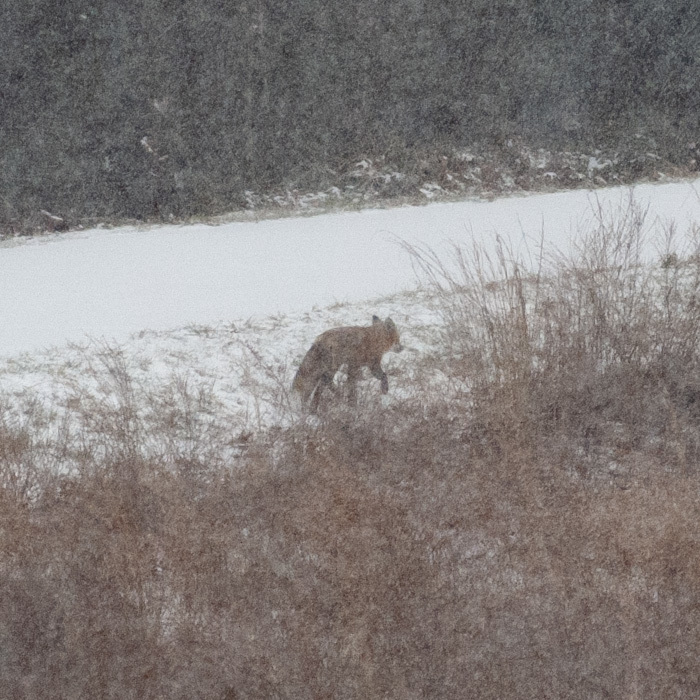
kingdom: Animalia
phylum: Chordata
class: Mammalia
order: Carnivora
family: Canidae
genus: Vulpes
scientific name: Vulpes vulpes
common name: Red fox
